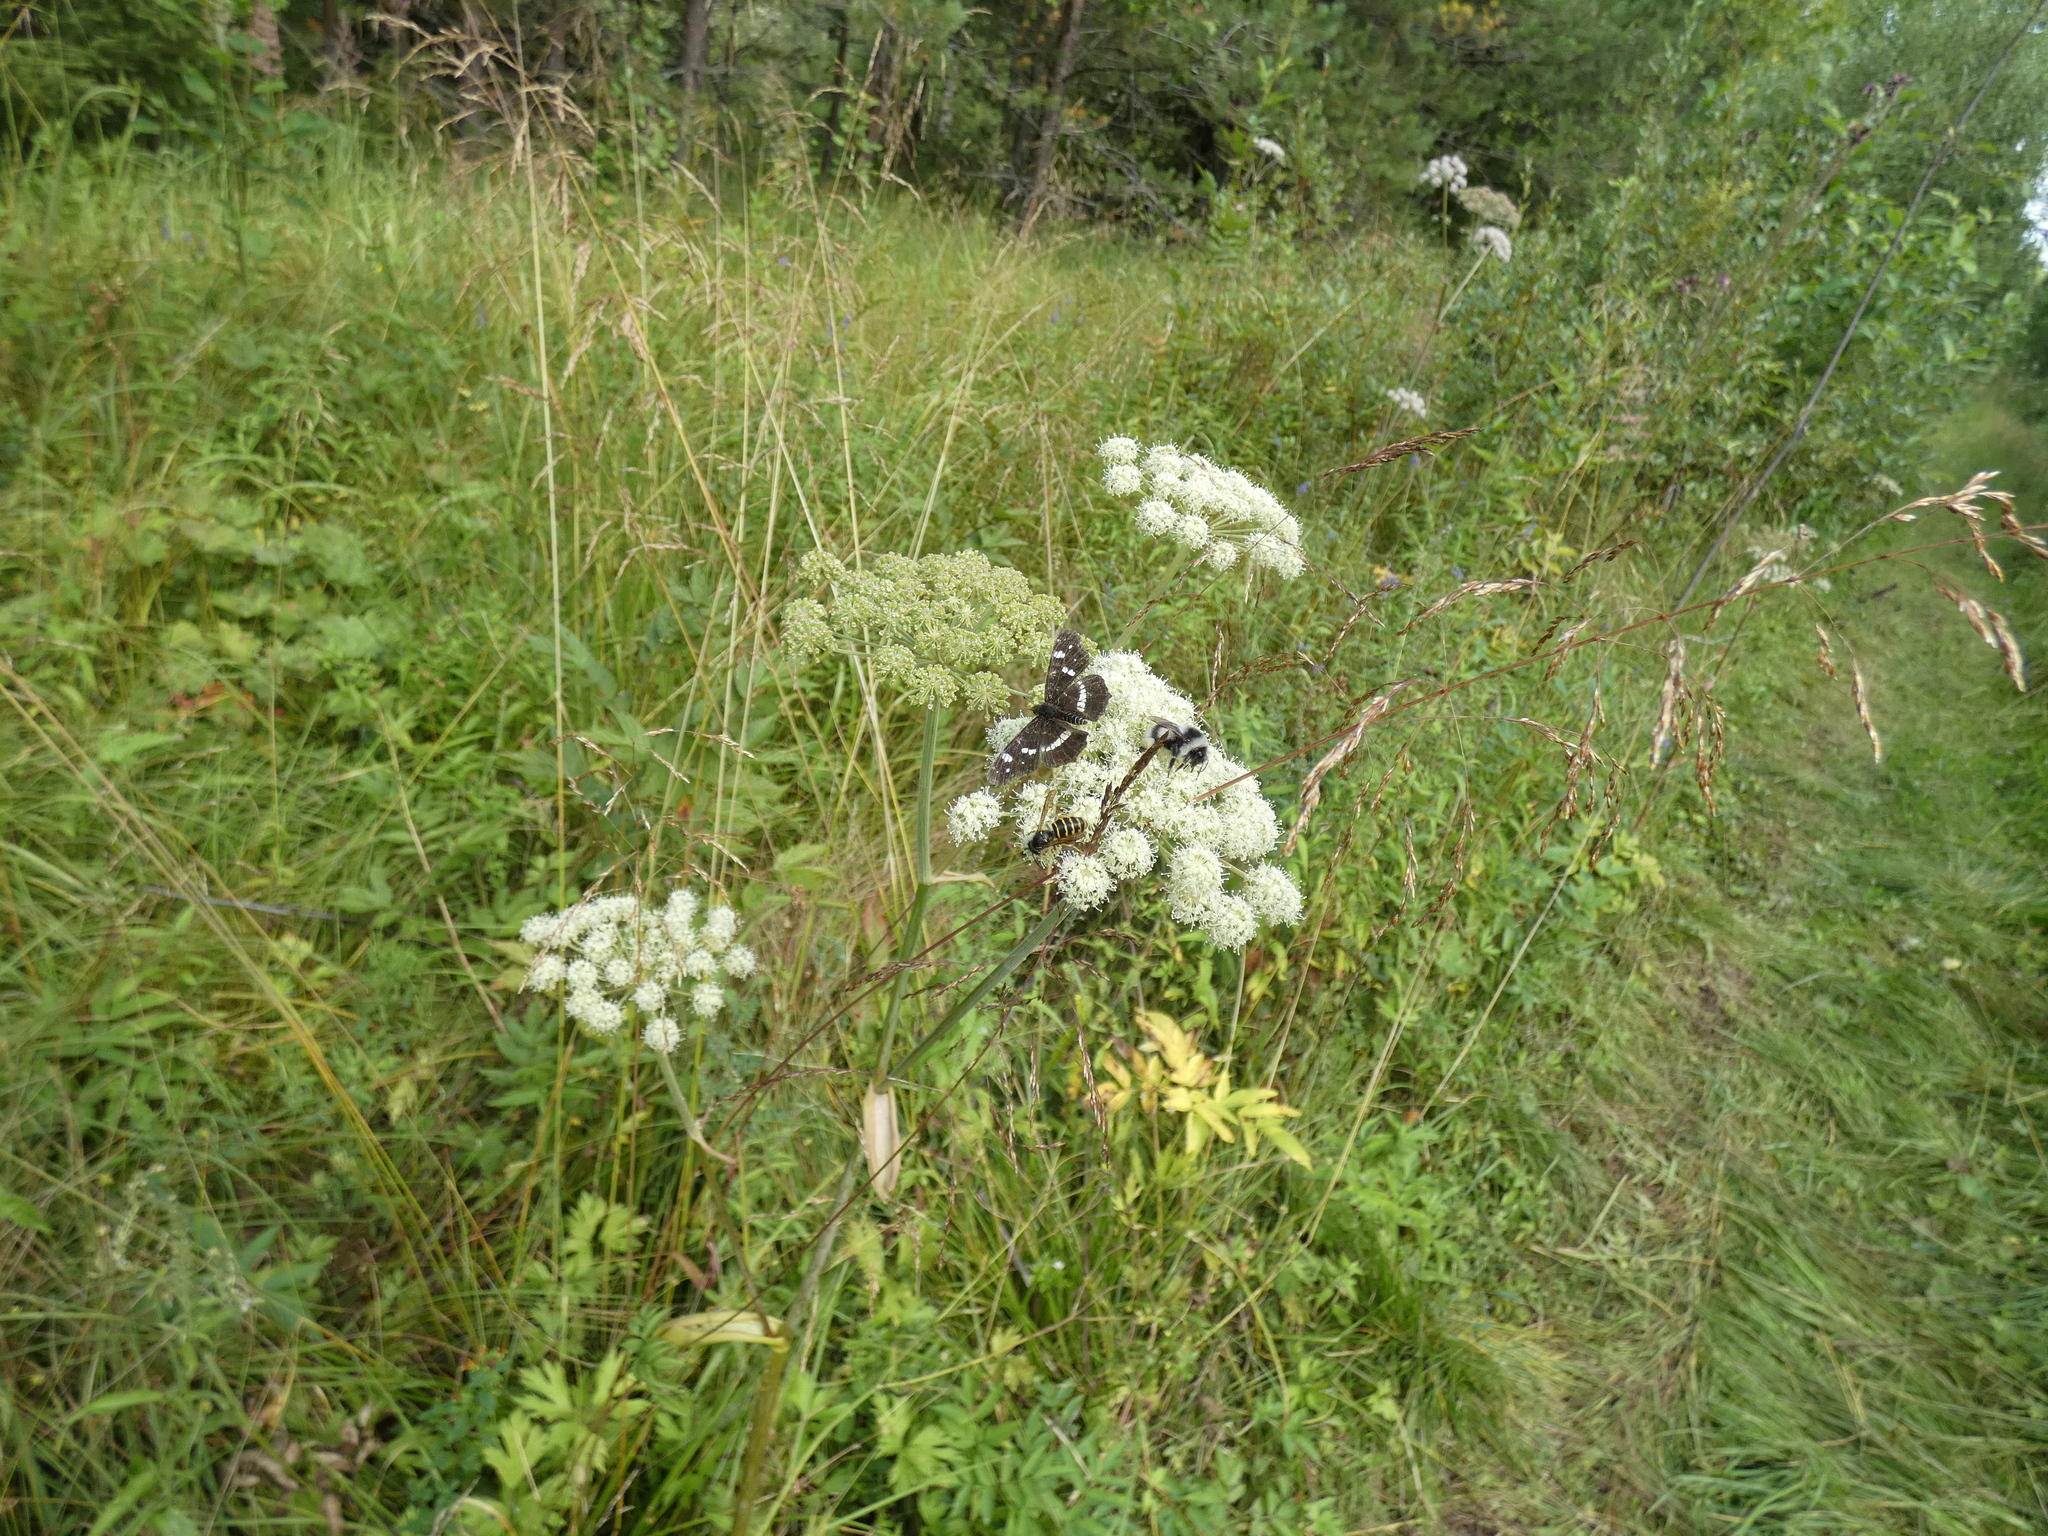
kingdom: Animalia
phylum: Arthropoda
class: Insecta
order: Lepidoptera
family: Nymphalidae
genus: Araschnia
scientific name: Araschnia levana
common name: Map butterfly
